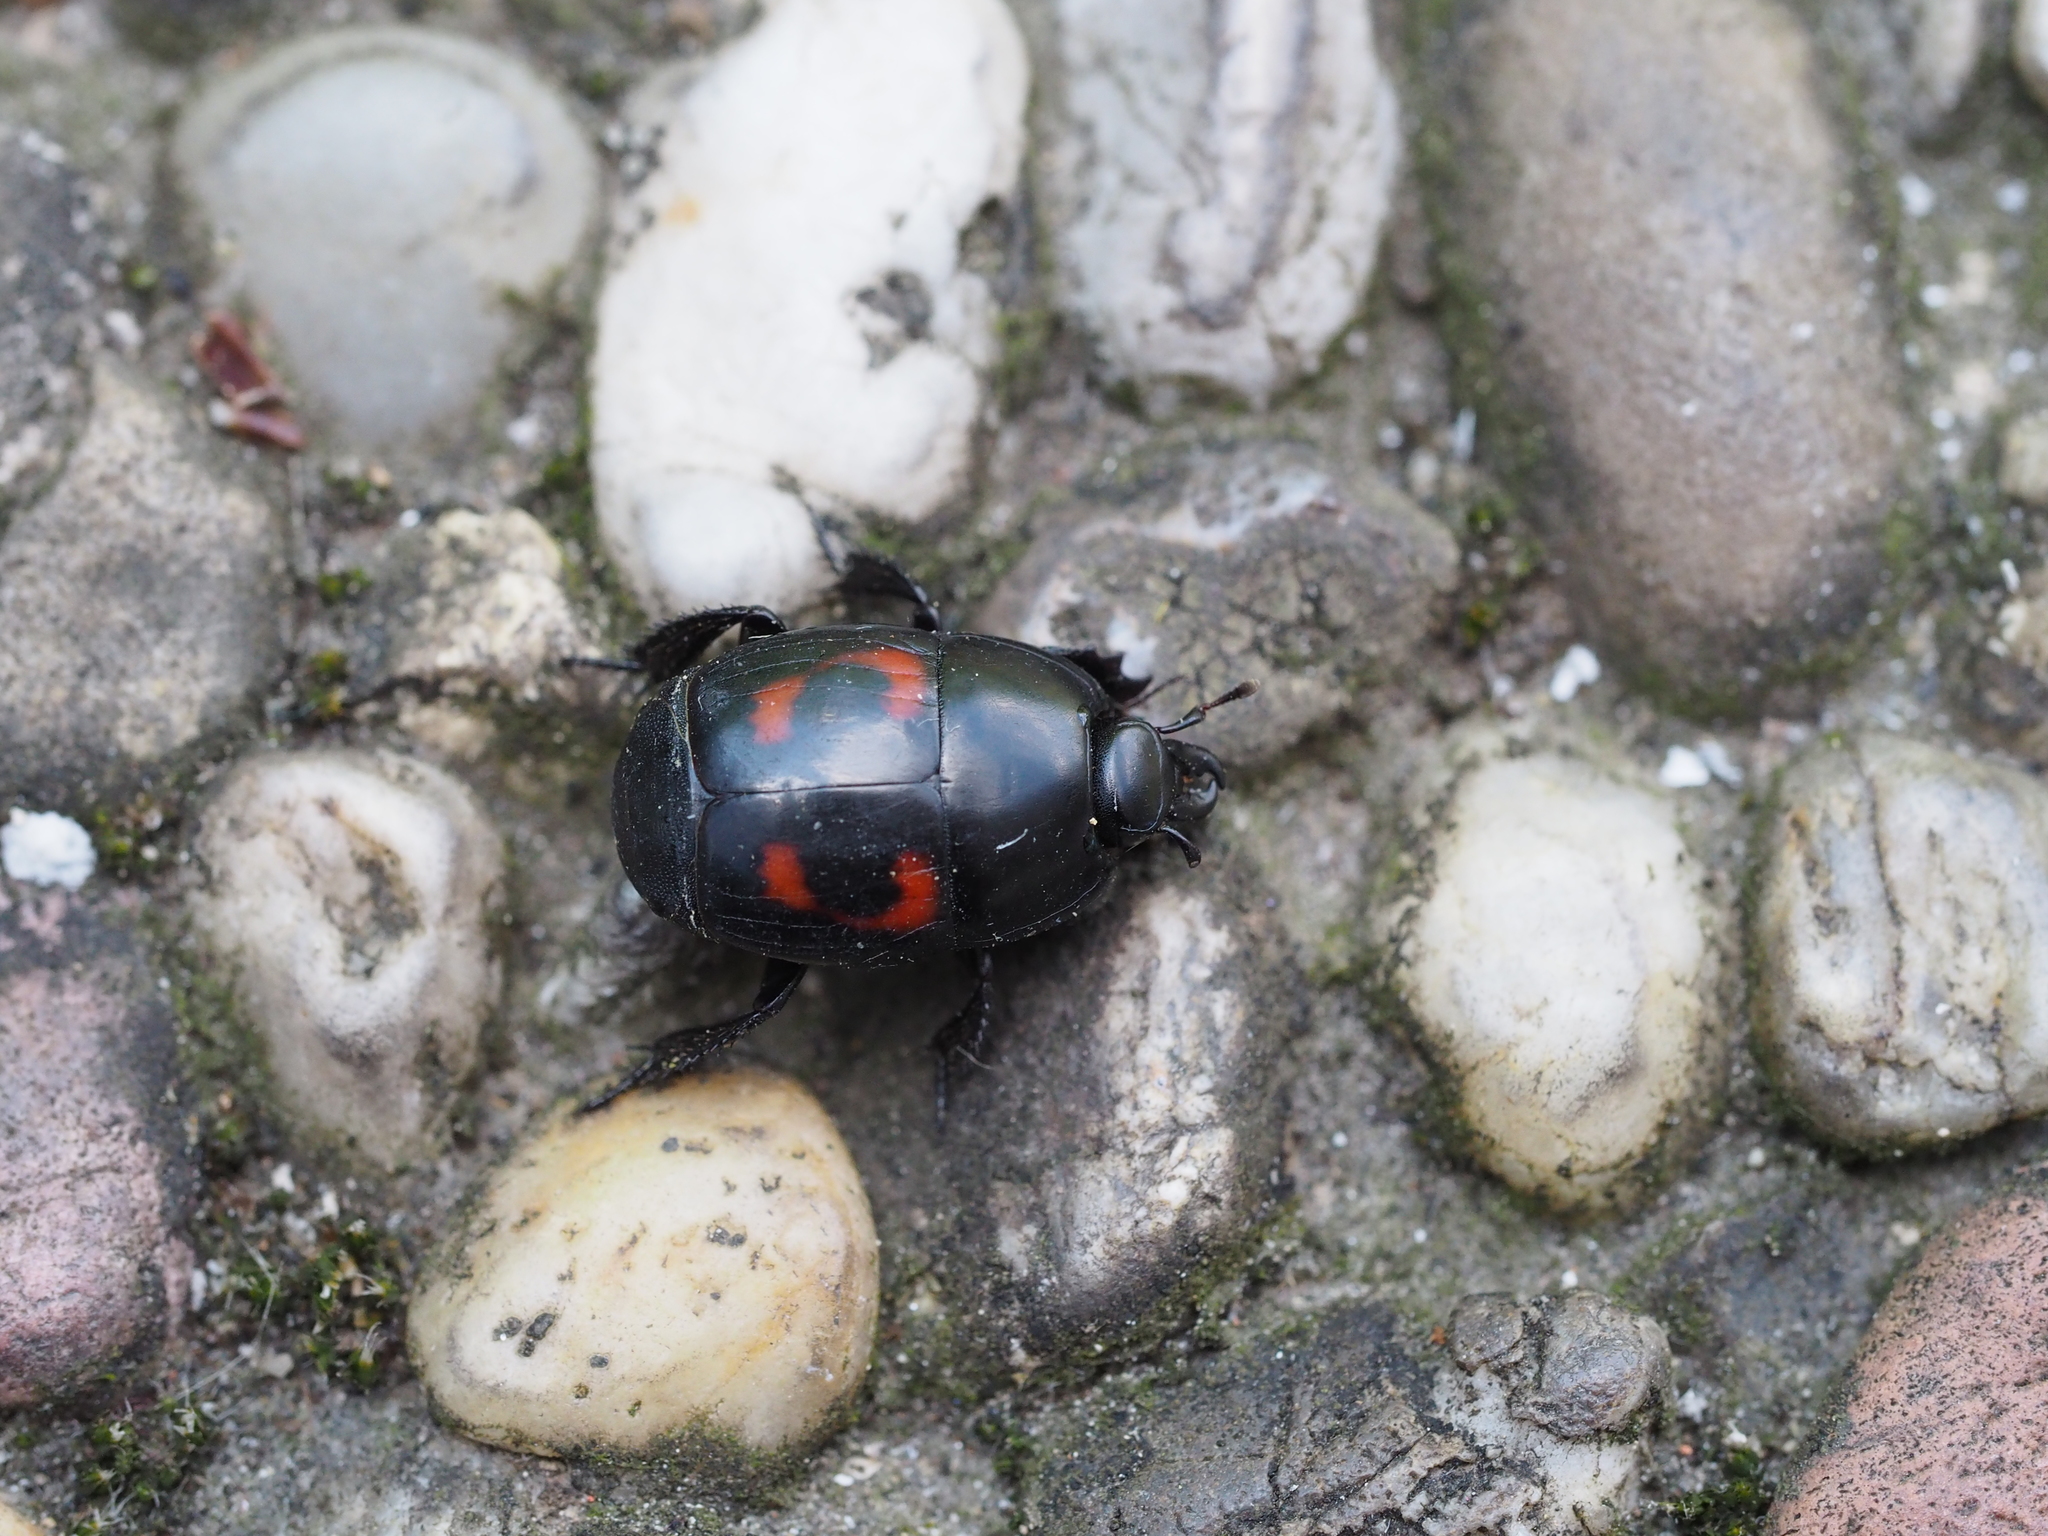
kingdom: Animalia
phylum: Arthropoda
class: Insecta
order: Coleoptera
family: Histeridae
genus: Hister
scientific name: Hister quadrimaculatus
